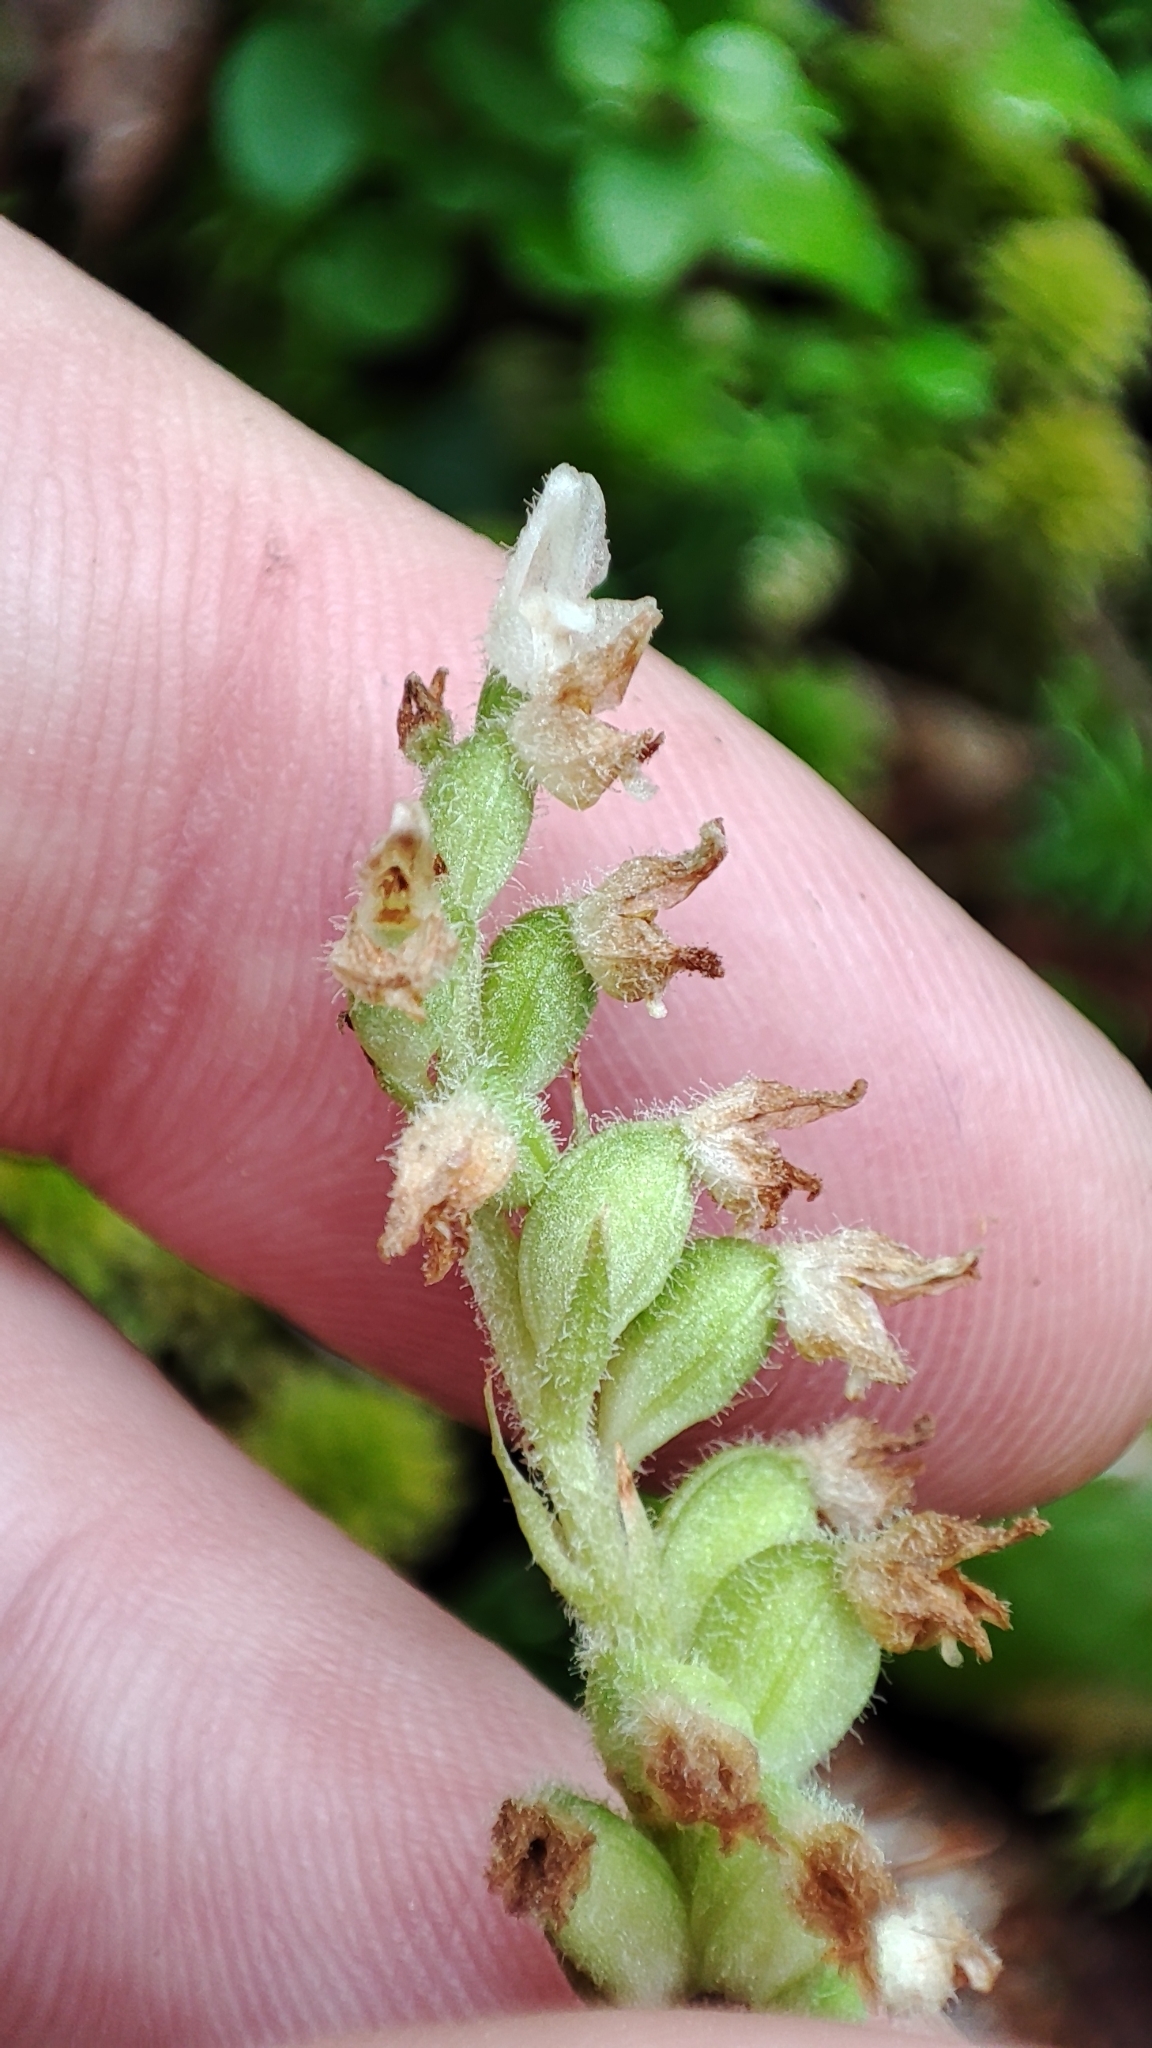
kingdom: Plantae
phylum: Tracheophyta
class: Liliopsida
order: Asparagales
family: Orchidaceae
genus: Goodyera
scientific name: Goodyera repens
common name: Creeping lady's-tresses
